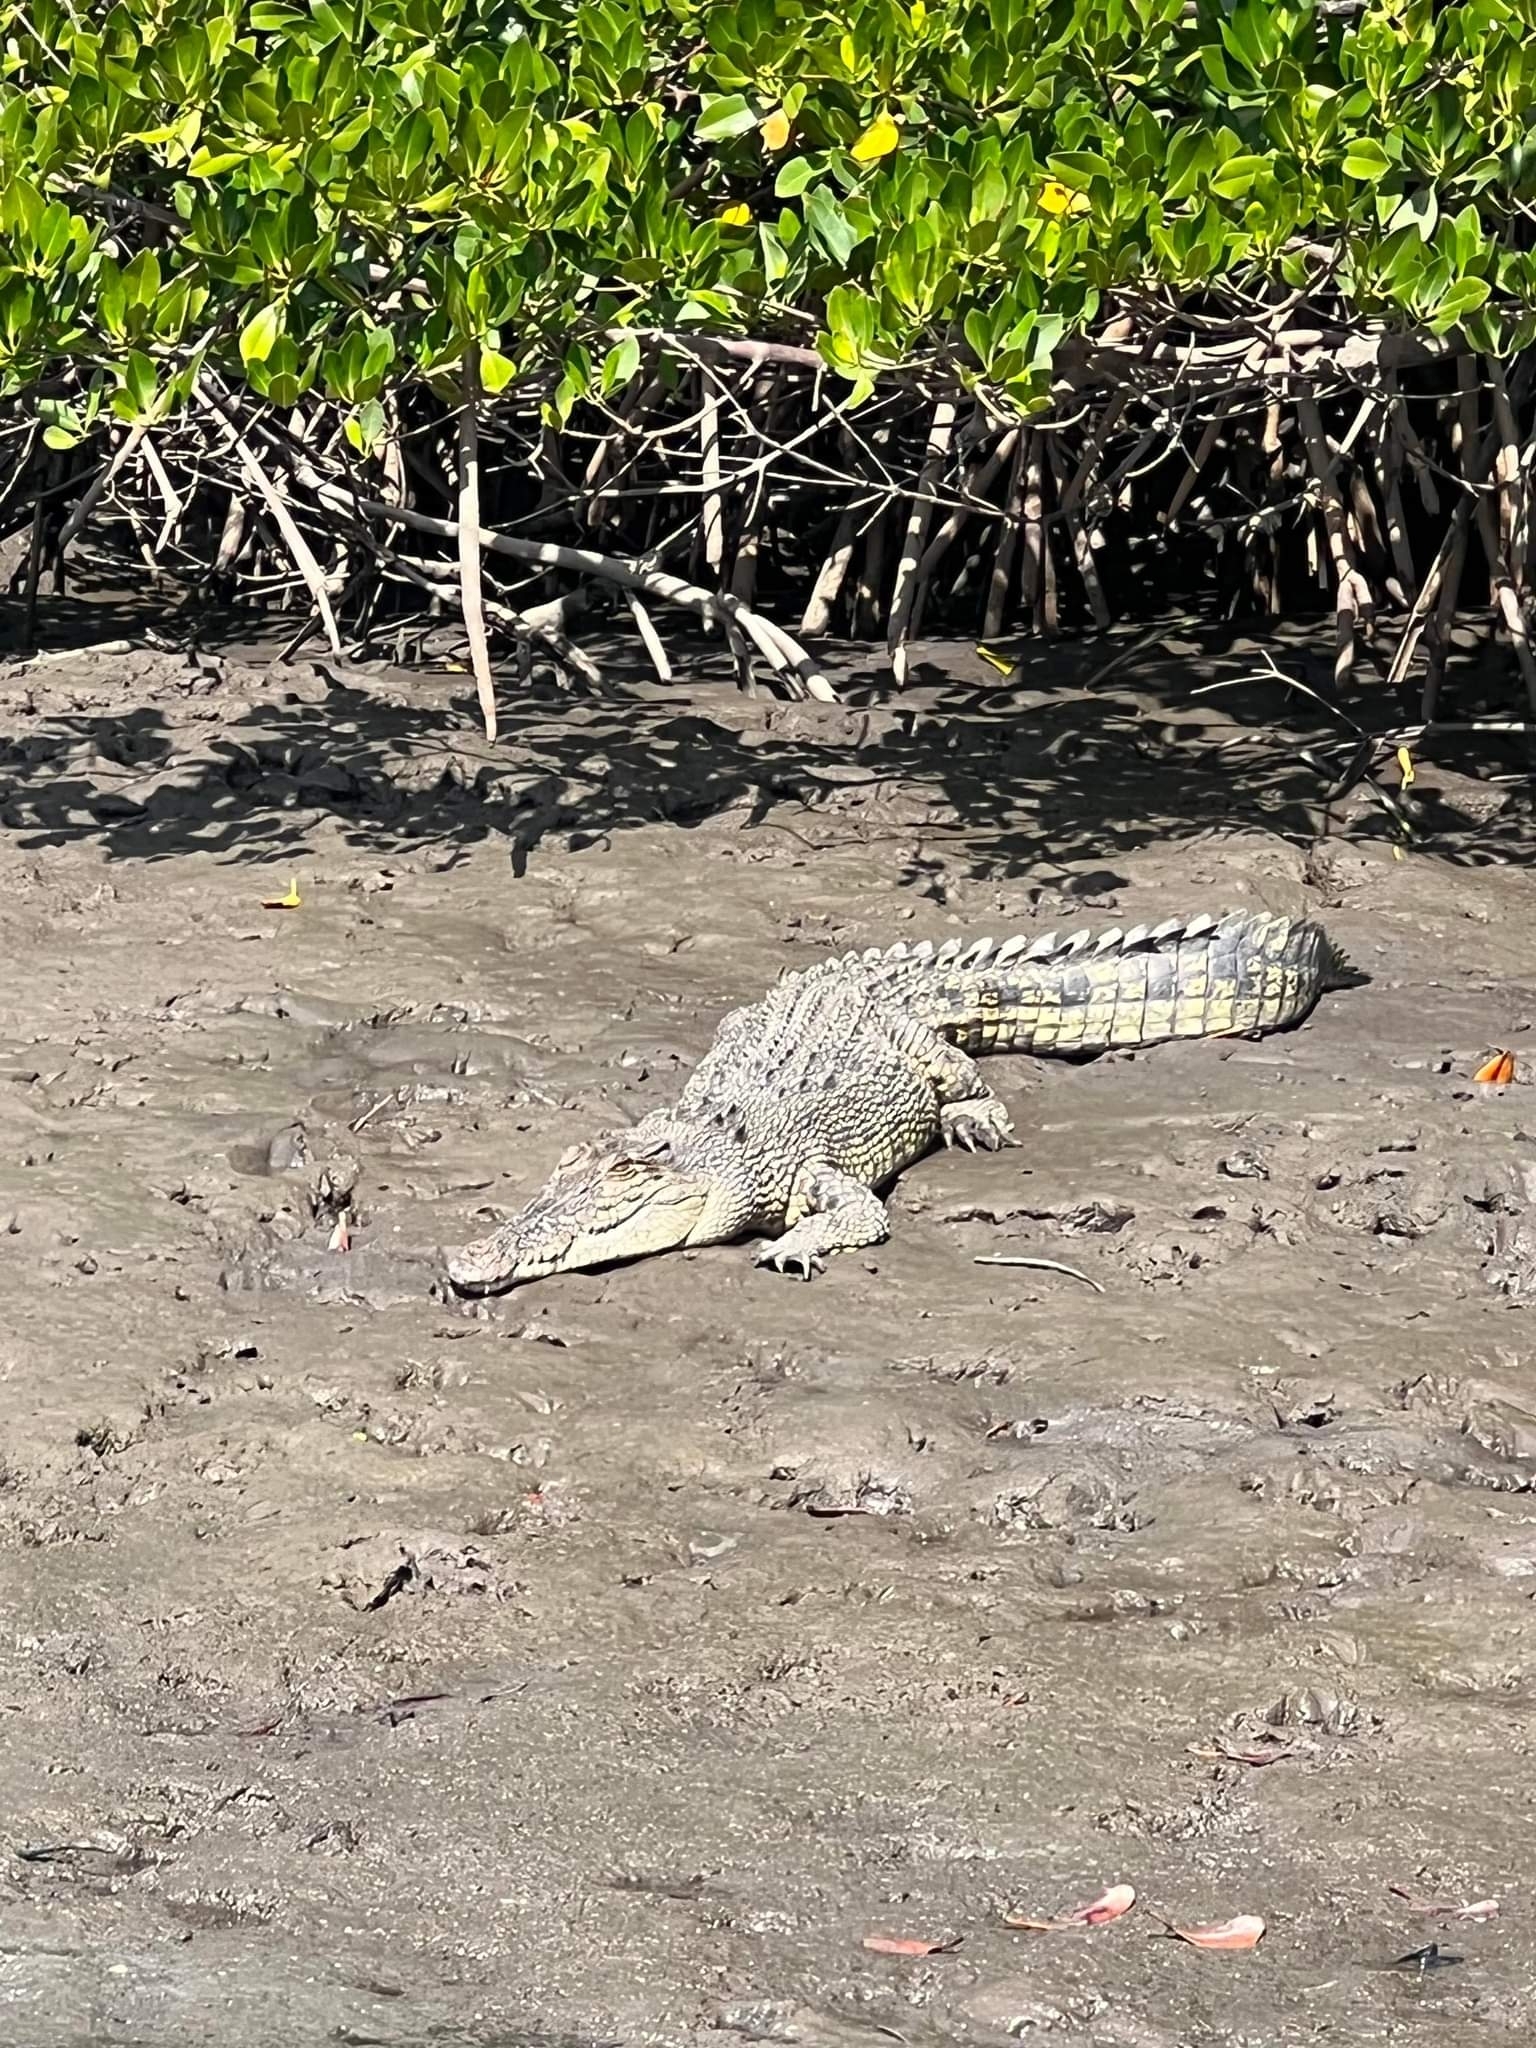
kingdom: Animalia
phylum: Chordata
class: Crocodylia
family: Crocodylidae
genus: Crocodylus
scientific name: Crocodylus porosus
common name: Saltwater crocodile
